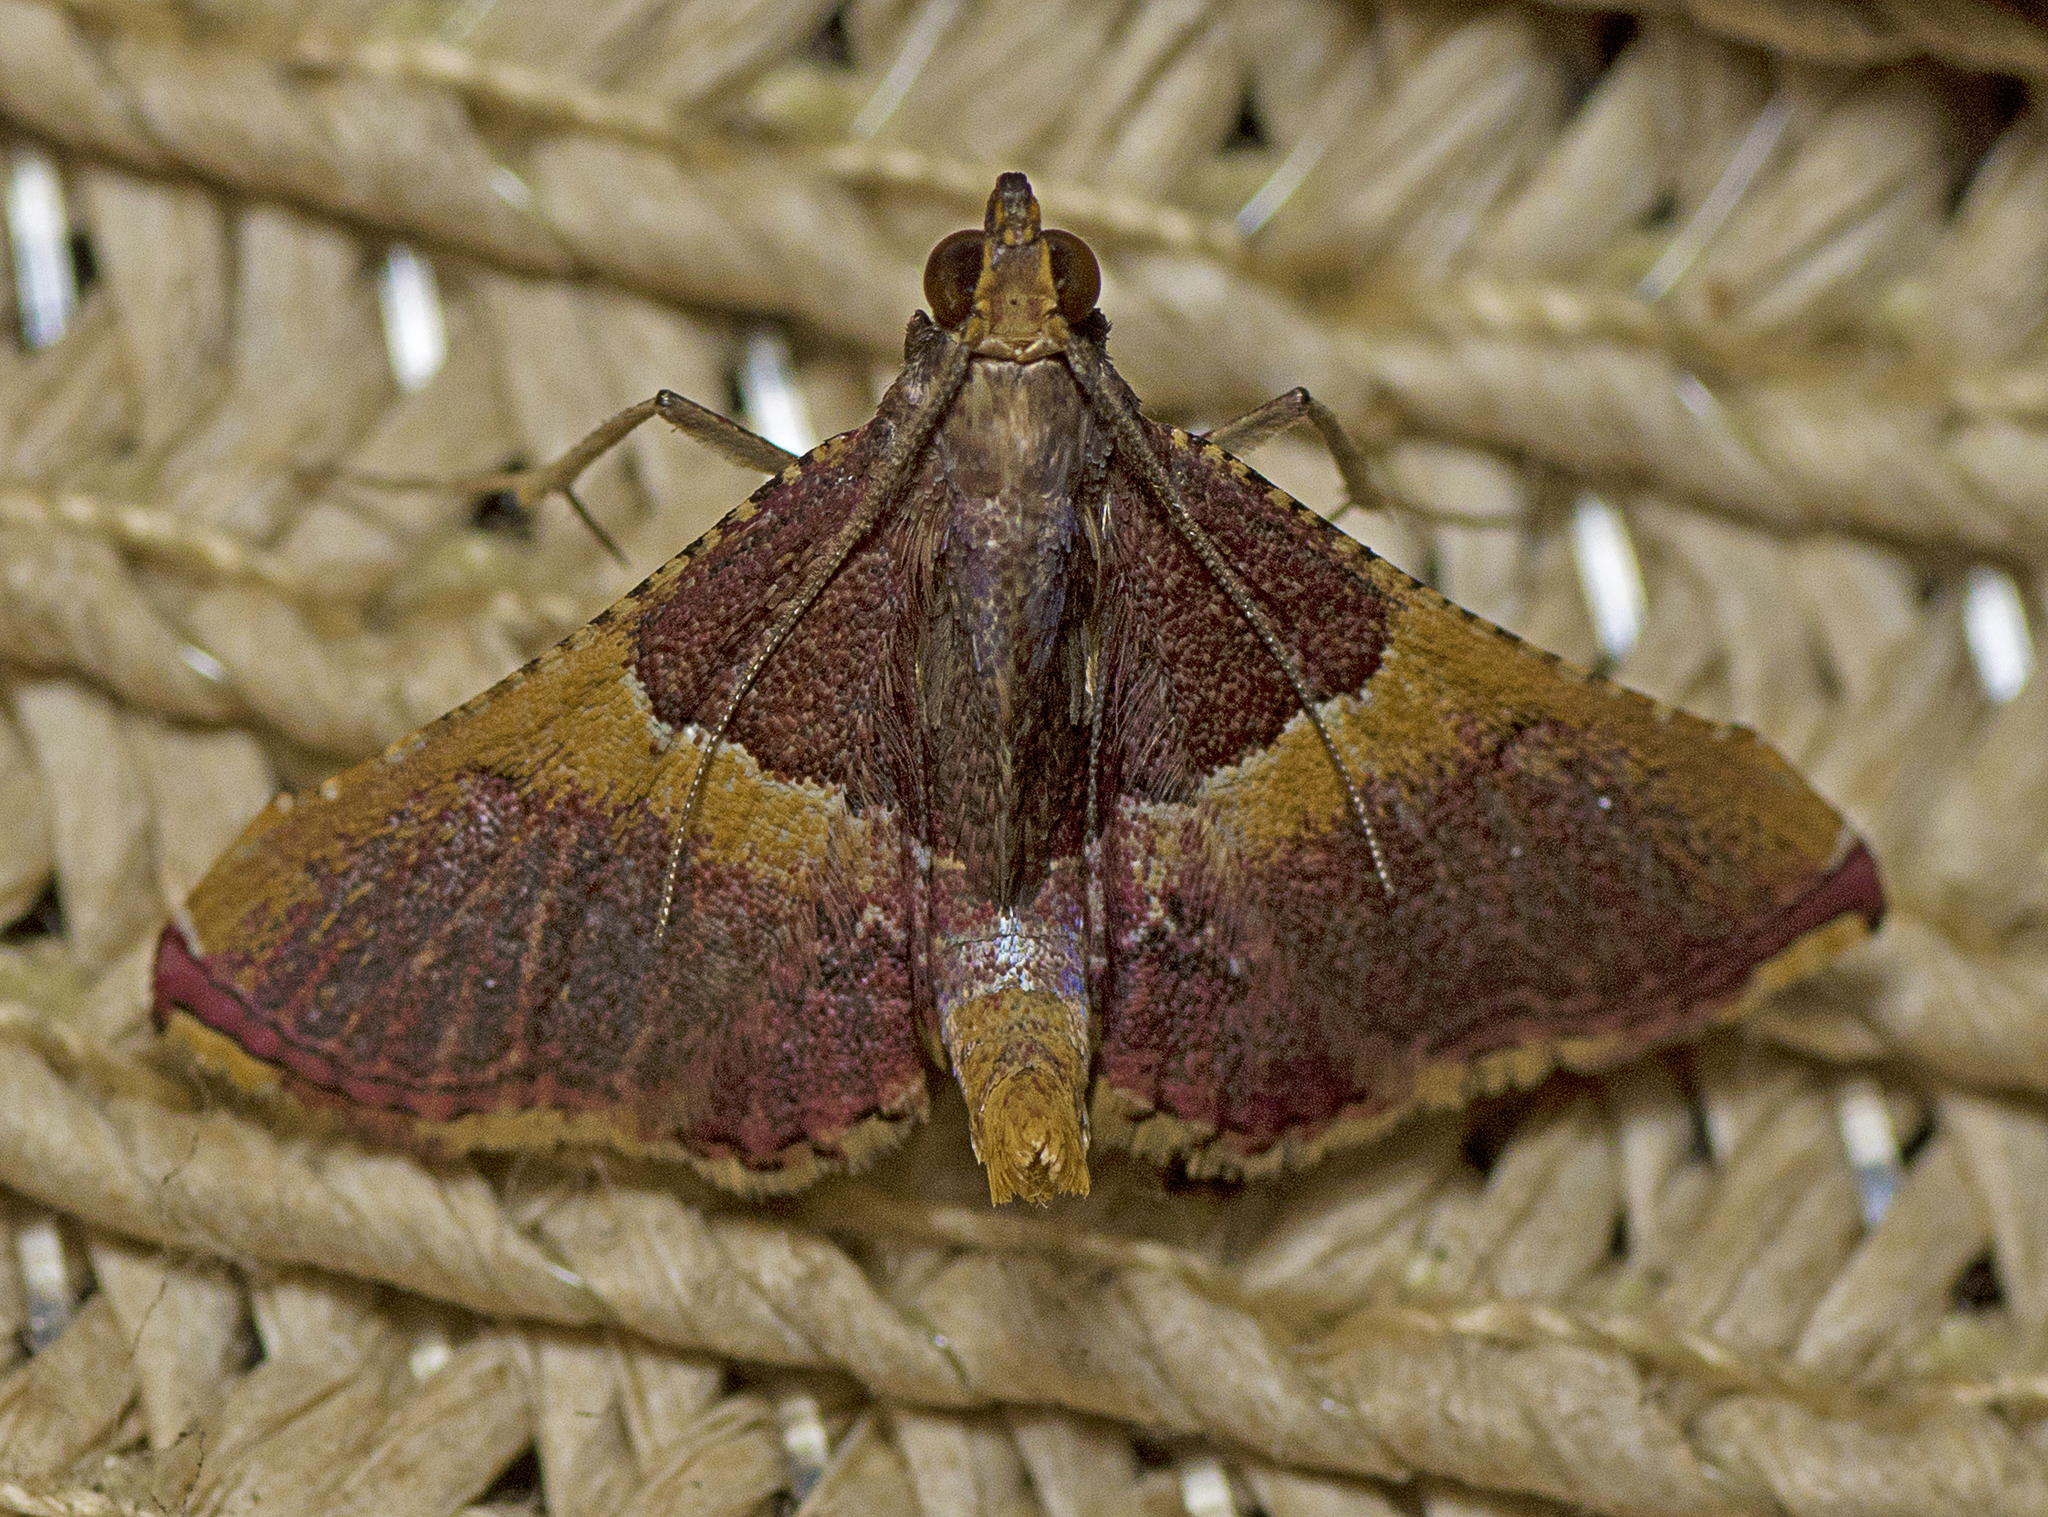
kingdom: Animalia
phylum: Arthropoda
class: Insecta
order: Lepidoptera
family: Pyralidae
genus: Endotricha
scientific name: Endotricha mesenterialis
